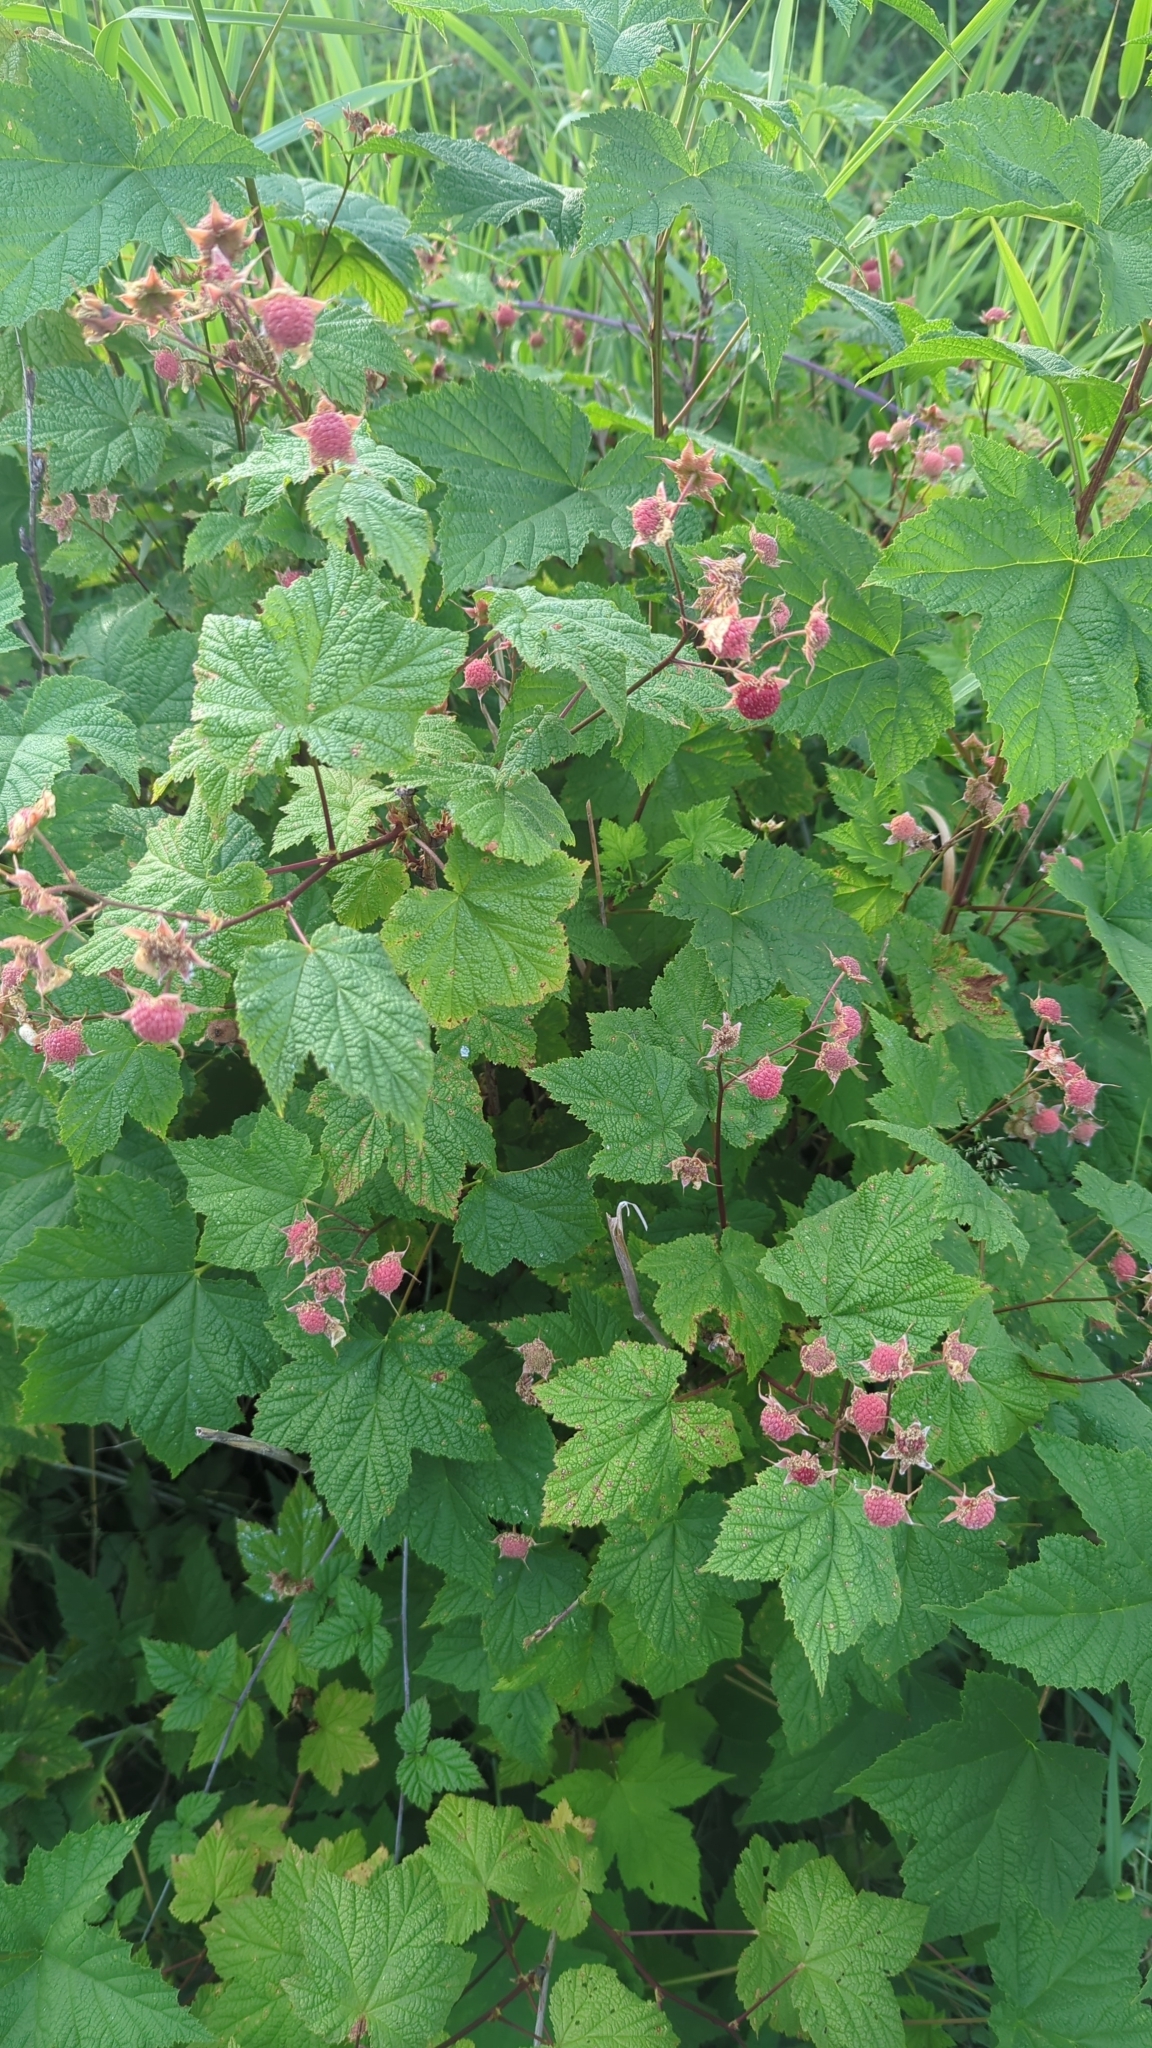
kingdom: Plantae
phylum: Tracheophyta
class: Magnoliopsida
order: Rosales
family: Rosaceae
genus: Rubus
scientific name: Rubus parviflorus
